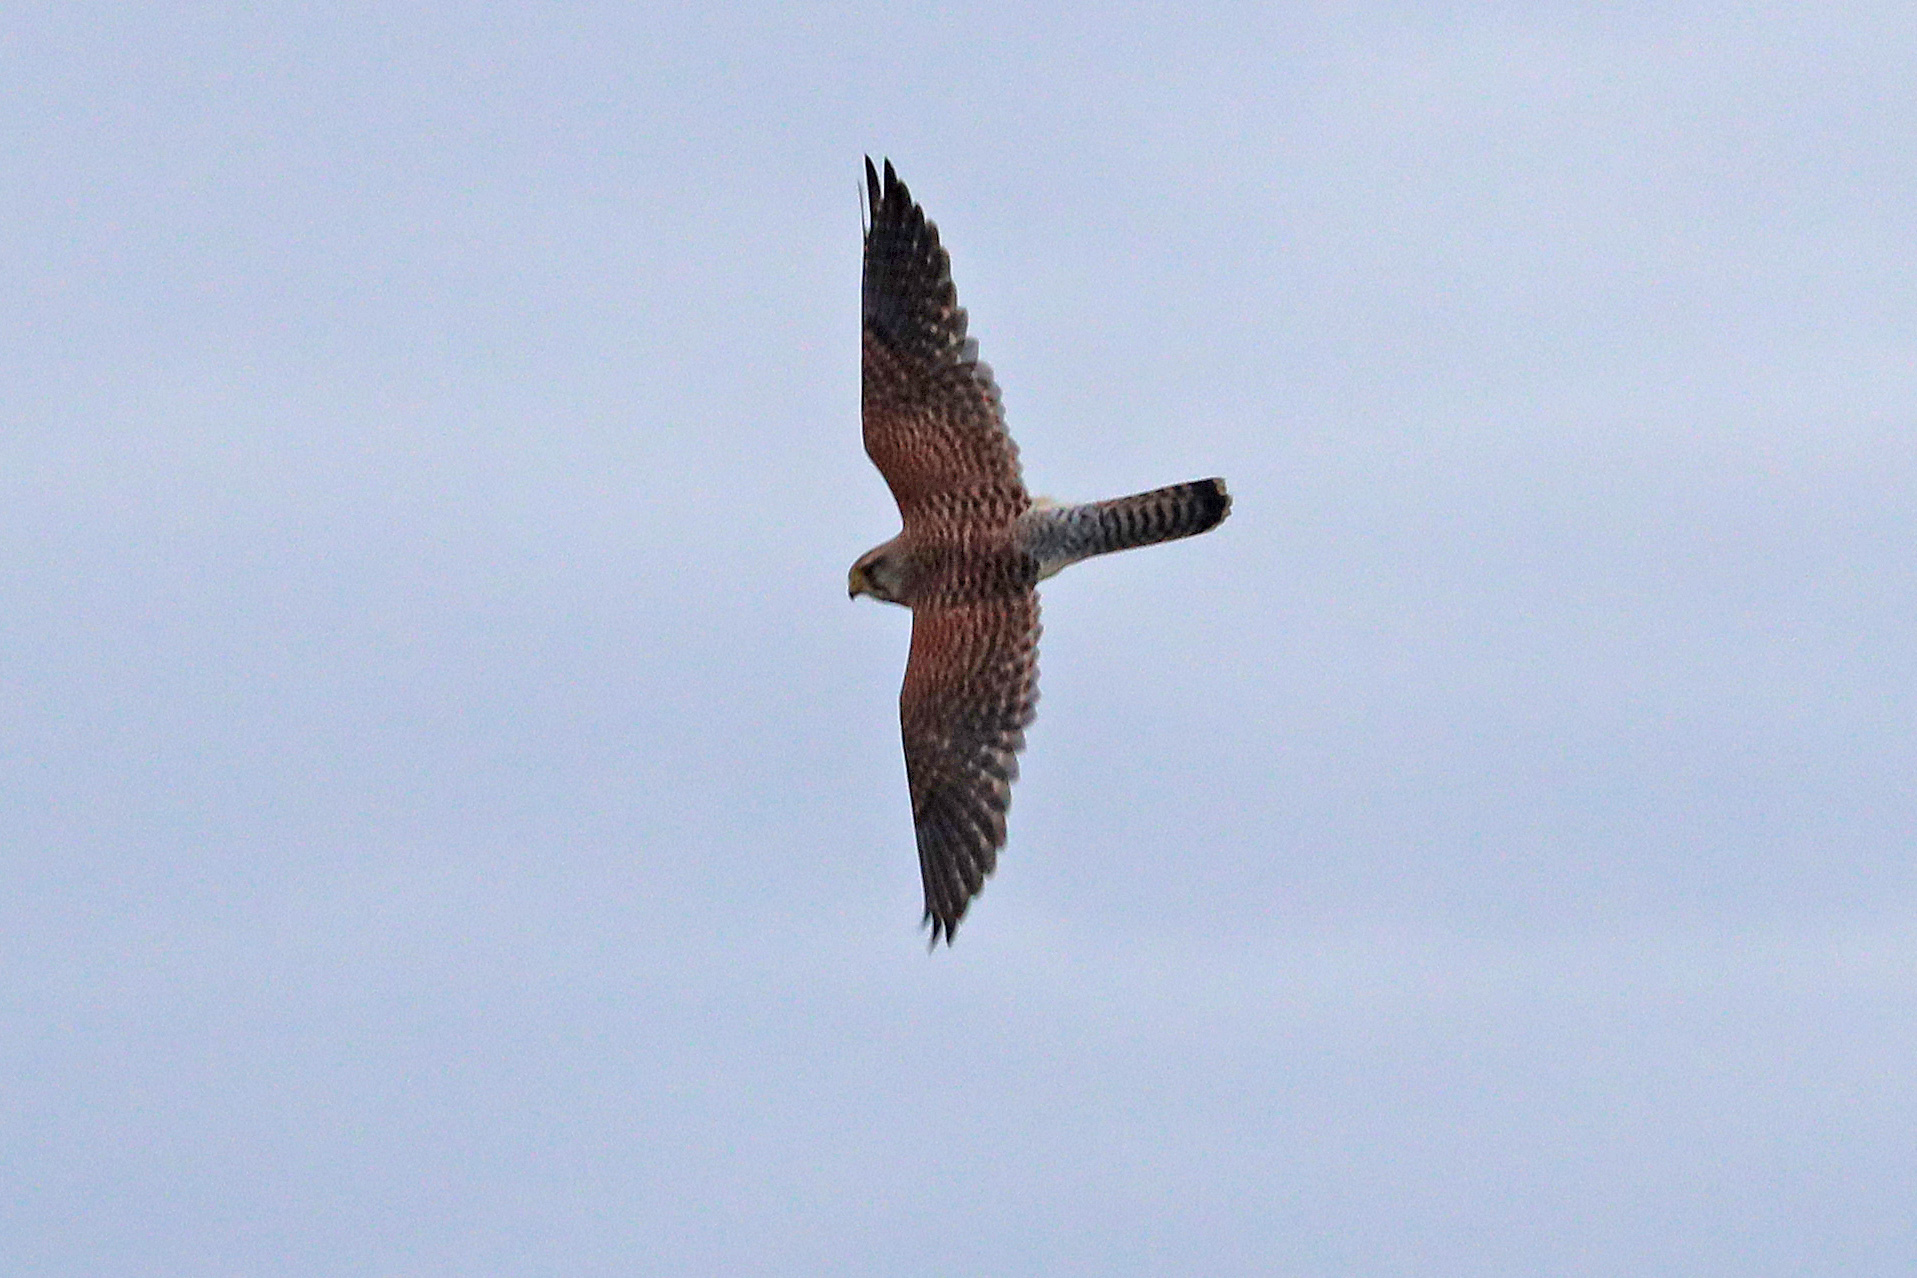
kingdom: Animalia
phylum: Chordata
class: Aves
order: Falconiformes
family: Falconidae
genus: Falco
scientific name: Falco tinnunculus
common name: Common kestrel
